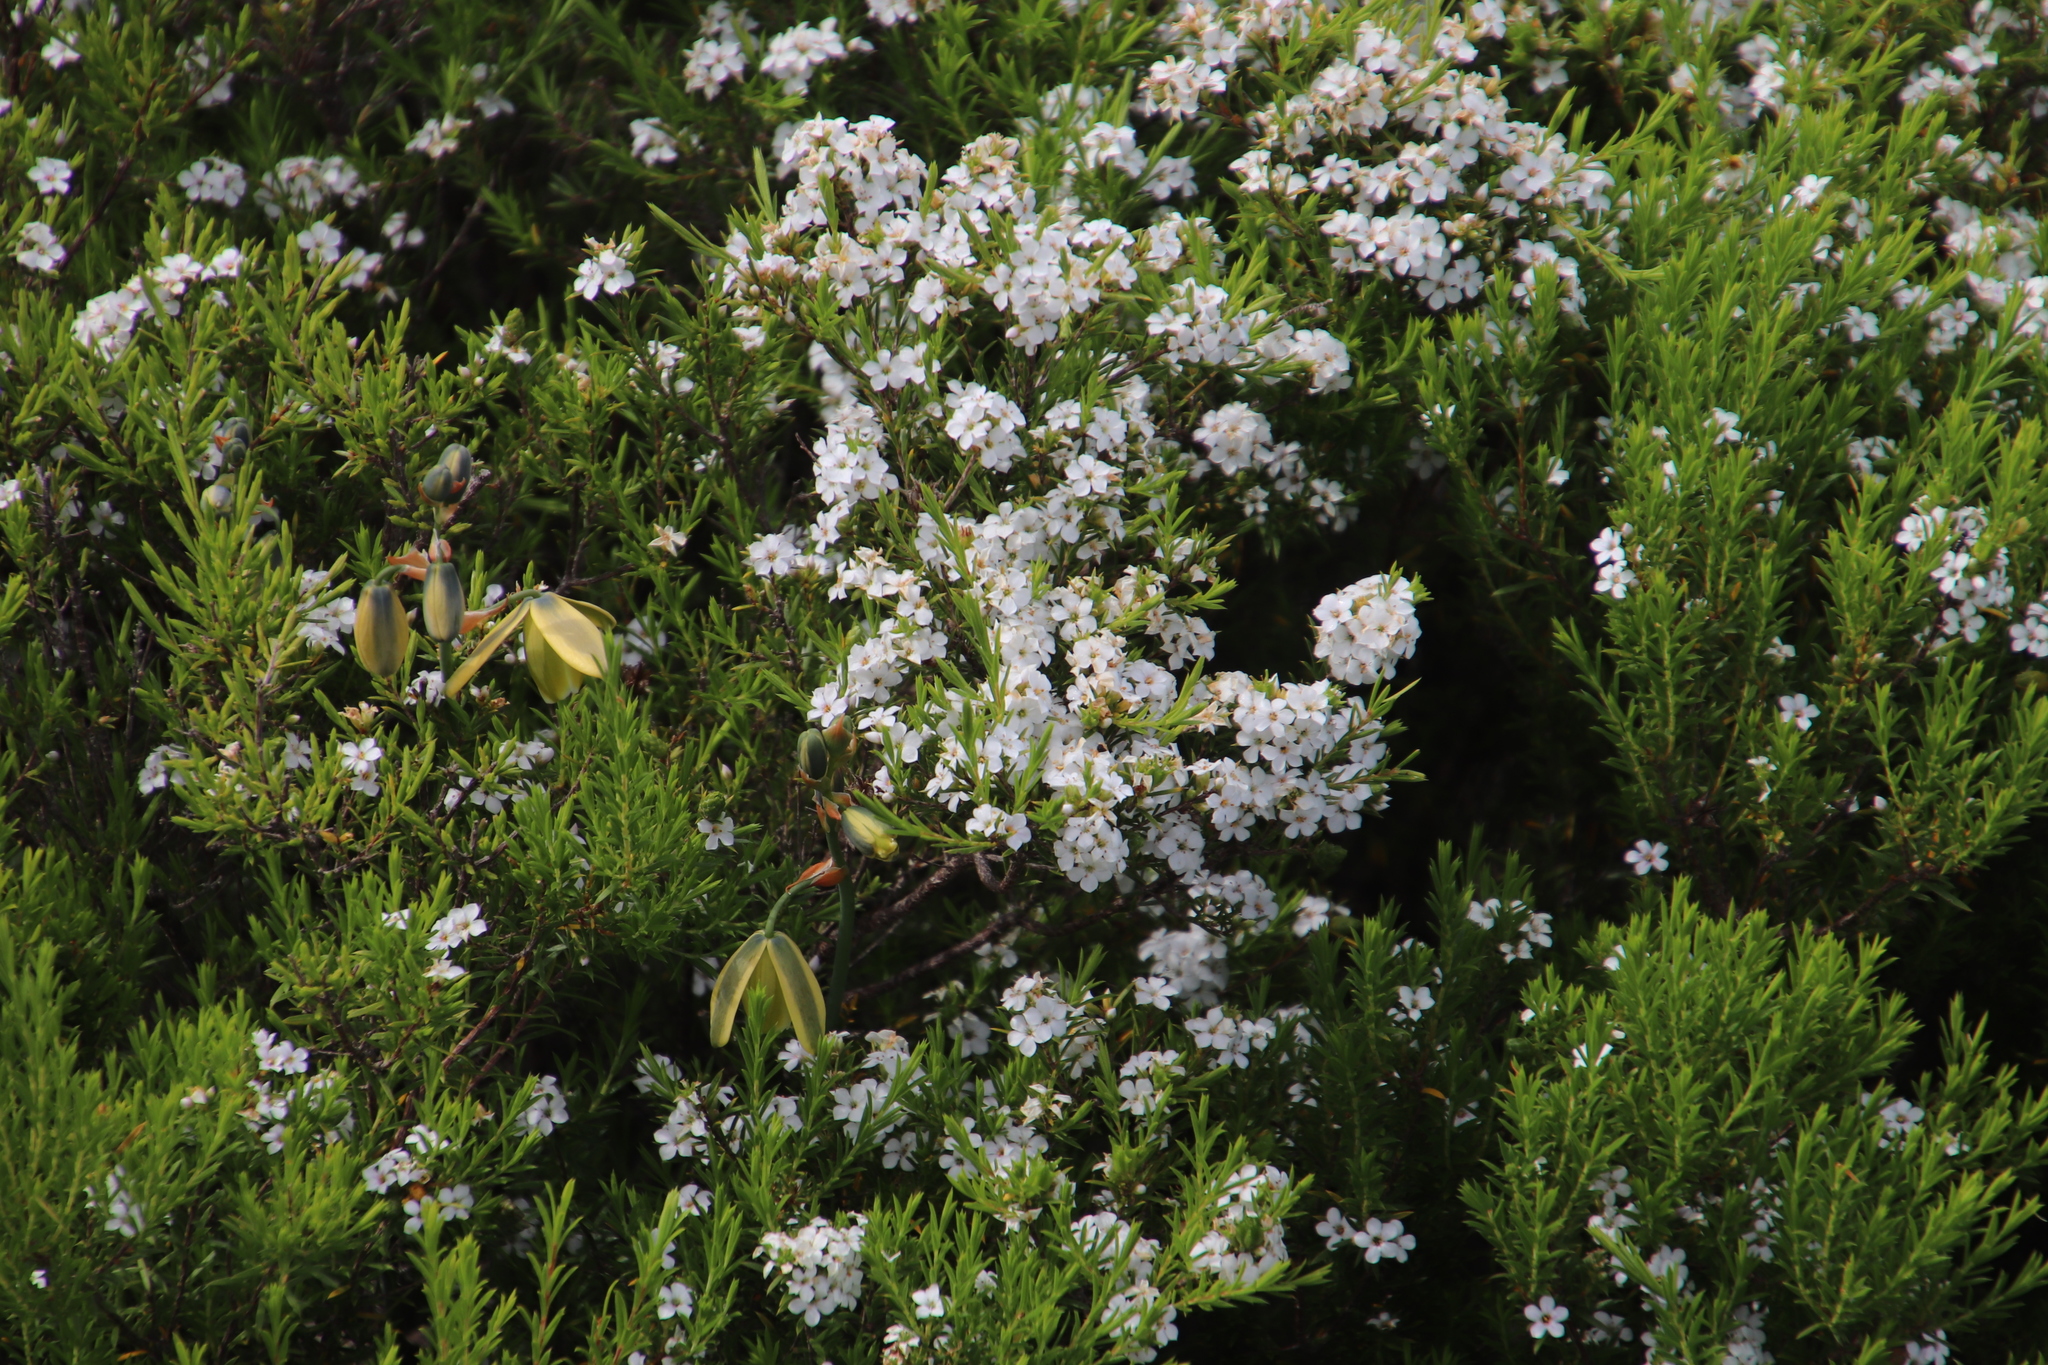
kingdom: Plantae
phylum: Tracheophyta
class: Magnoliopsida
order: Sapindales
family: Rutaceae
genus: Coleonema
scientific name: Coleonema album
